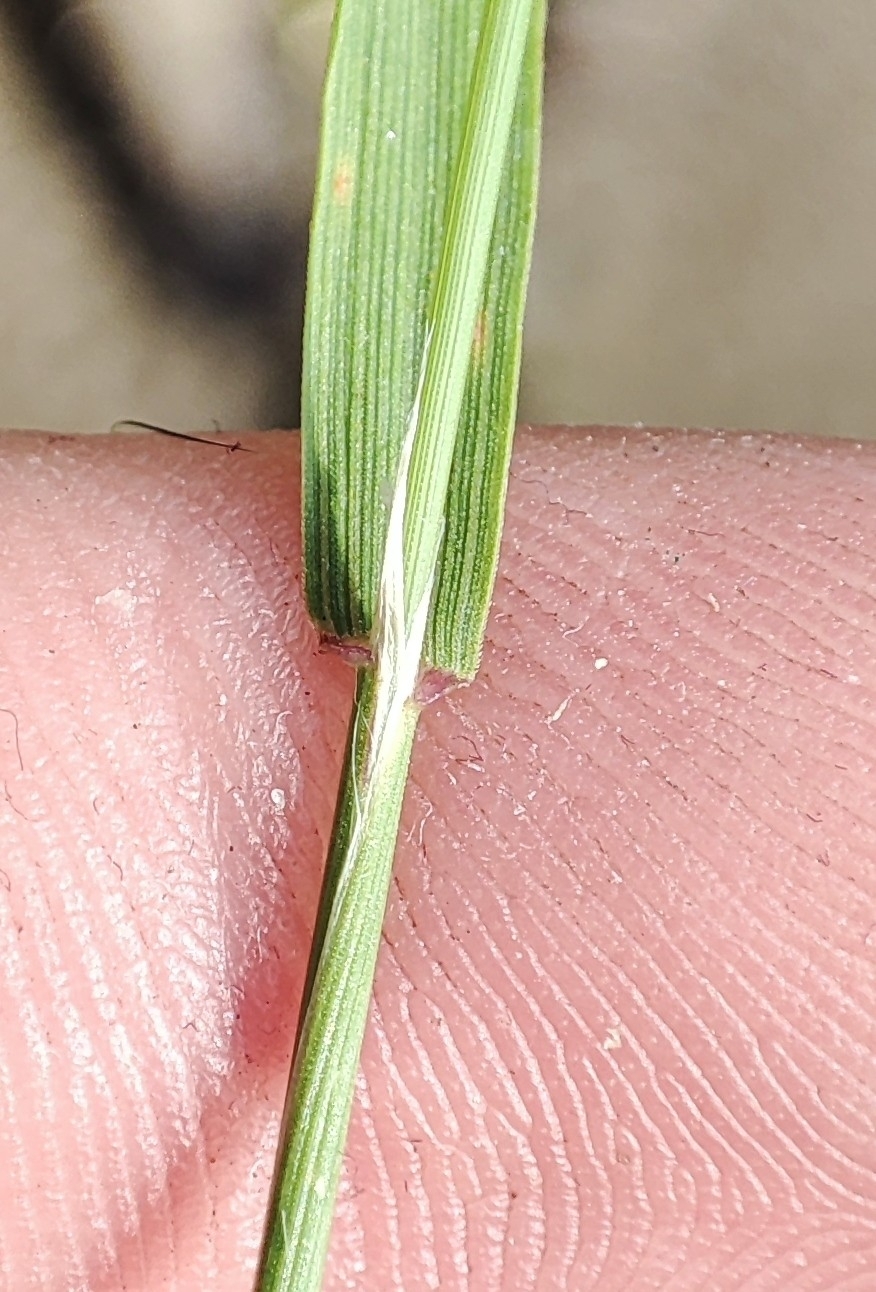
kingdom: Plantae
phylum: Tracheophyta
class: Liliopsida
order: Poales
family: Poaceae
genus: Agrostis
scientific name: Agrostis gigantea
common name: Black bent
